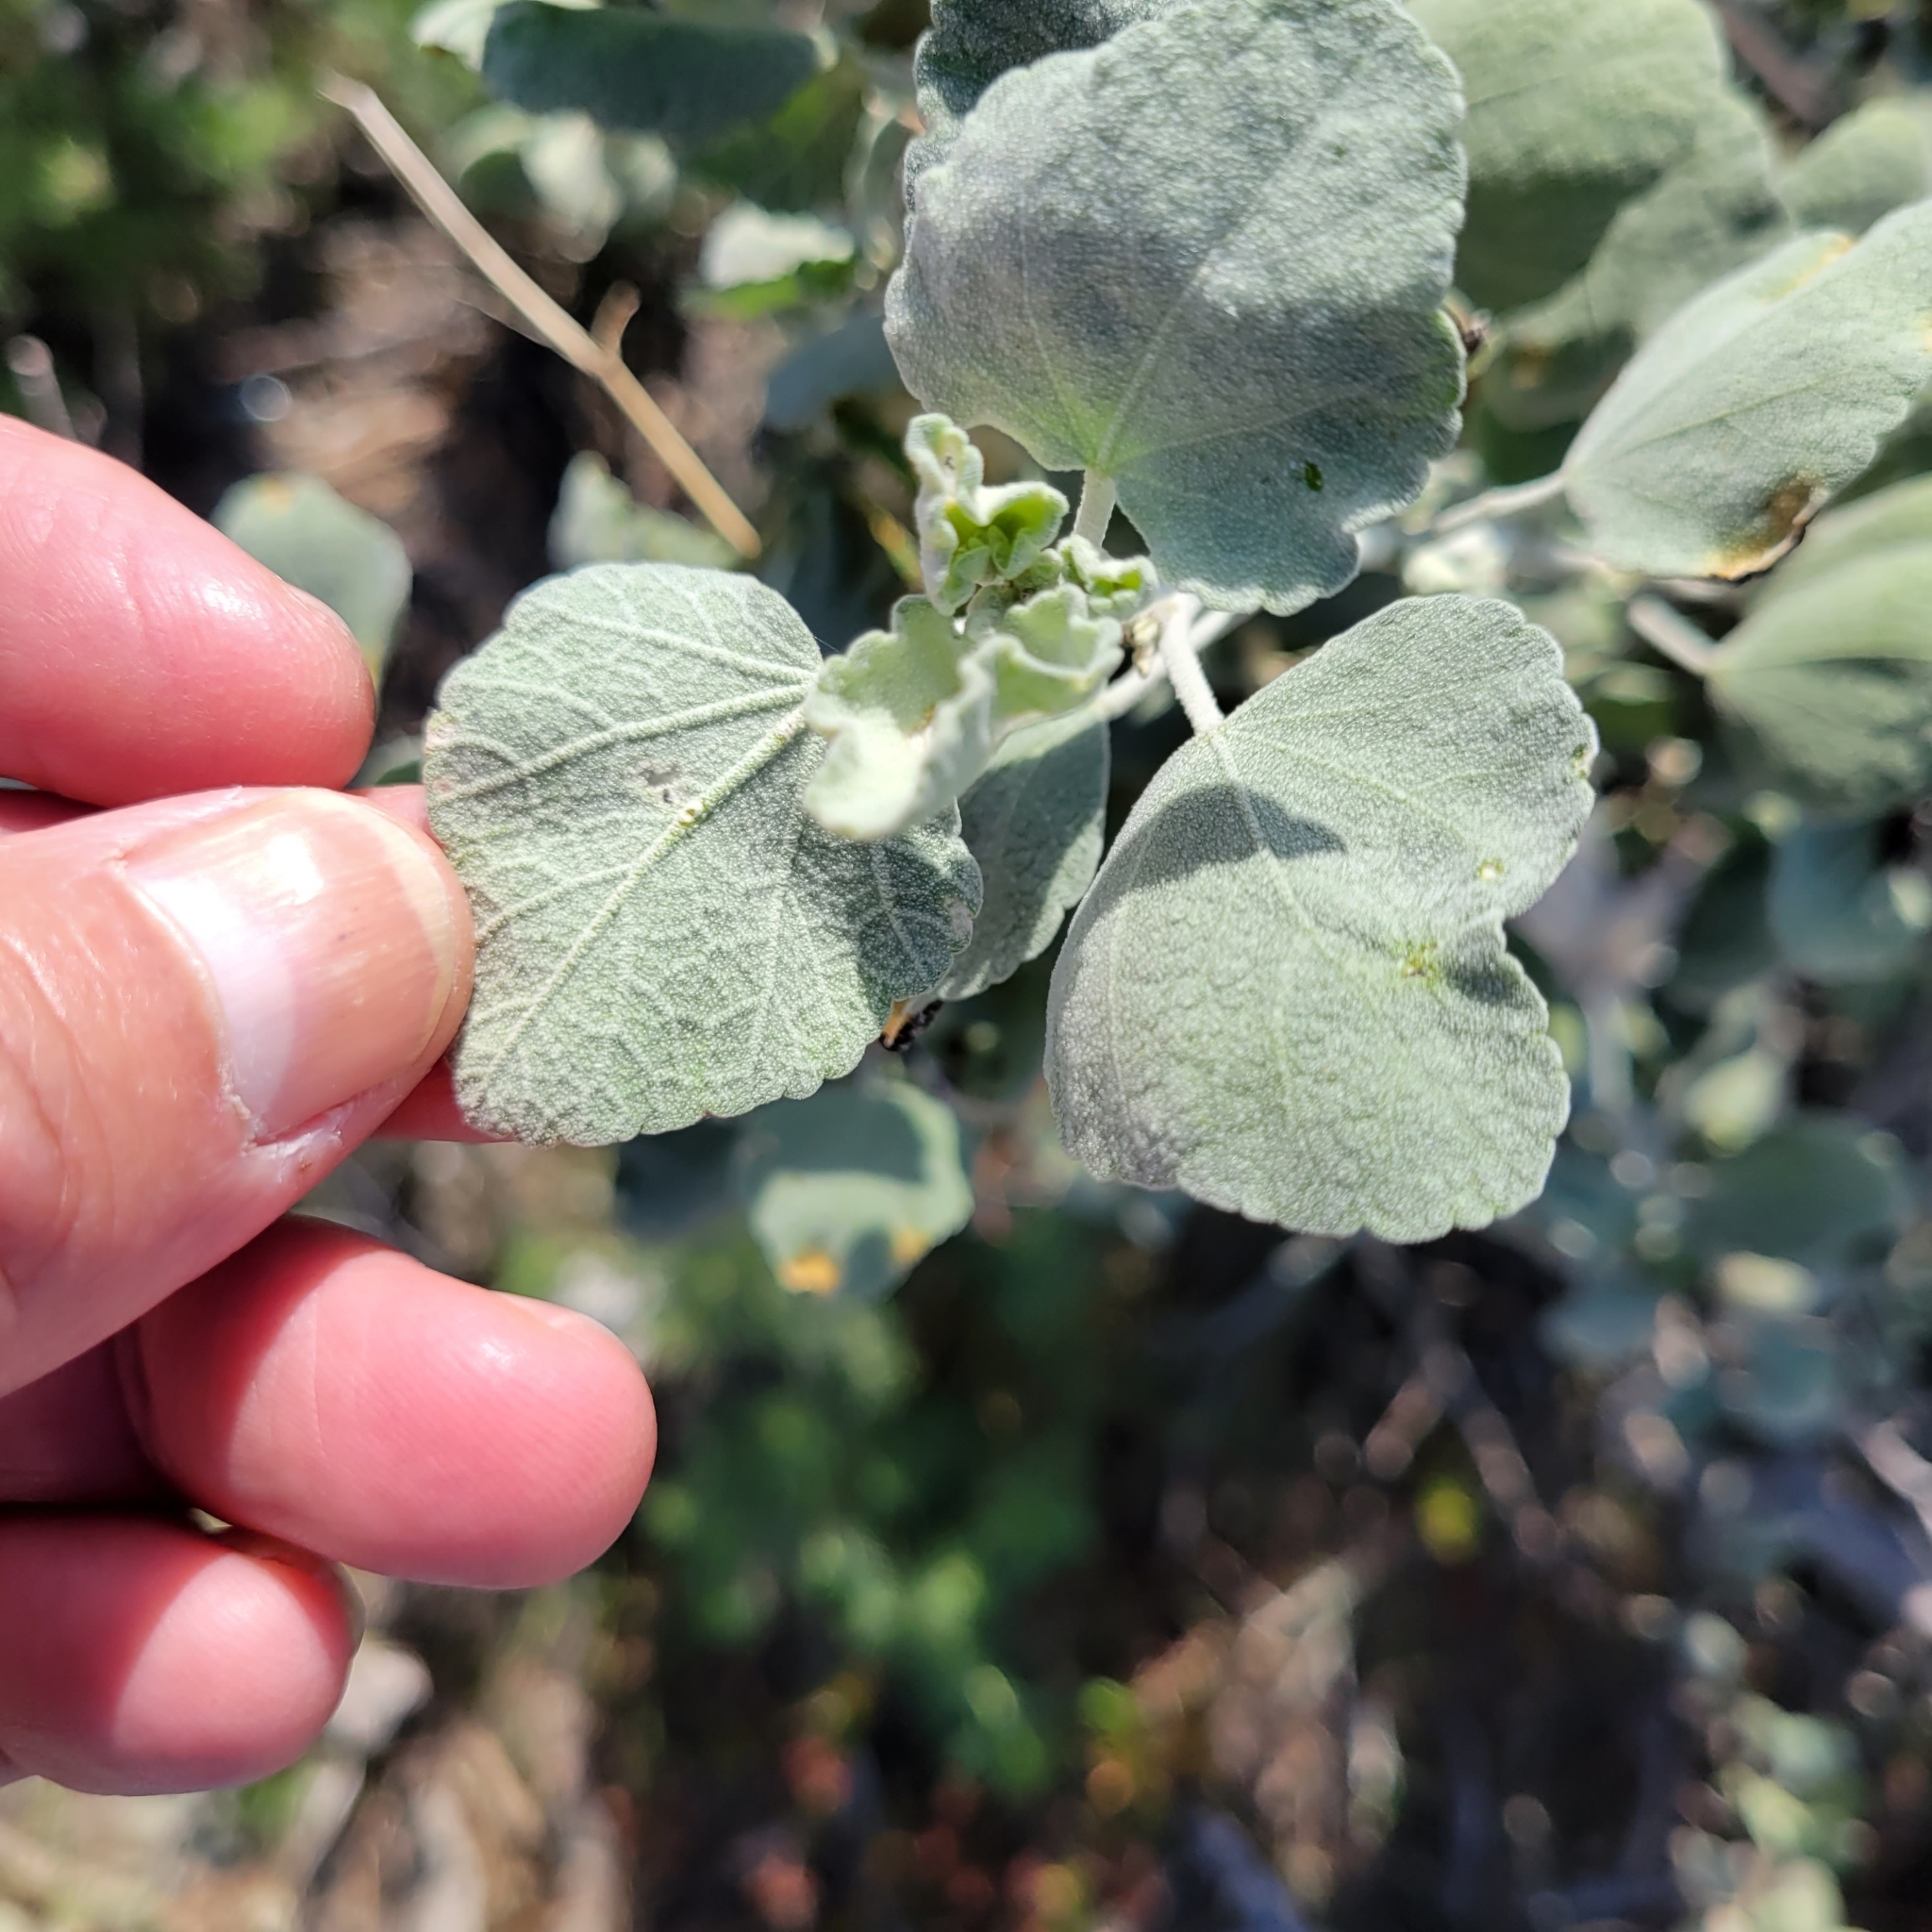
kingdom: Plantae
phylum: Tracheophyta
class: Magnoliopsida
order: Malvales
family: Malvaceae
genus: Malacothamnus
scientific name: Malacothamnus jonesii
